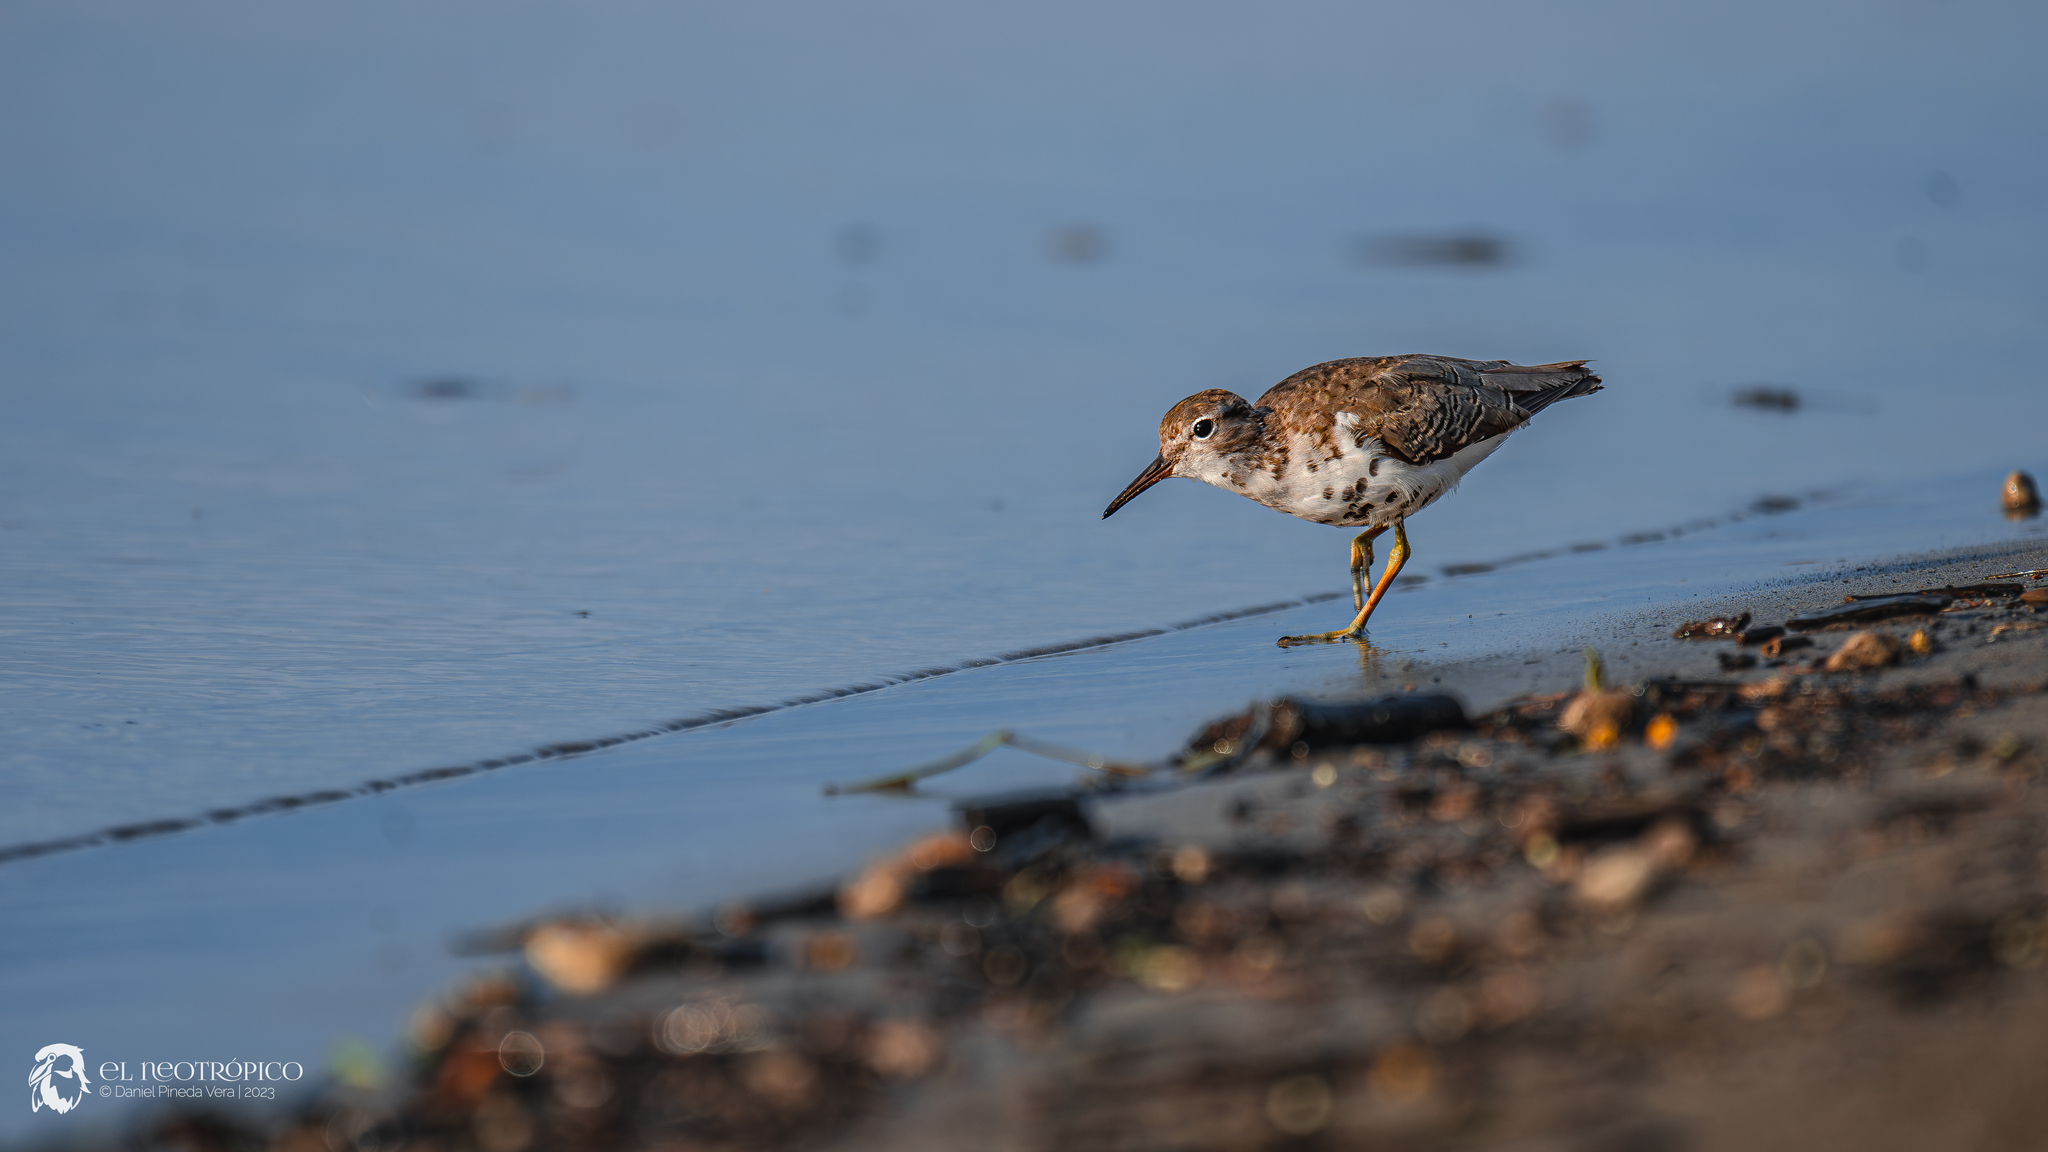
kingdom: Animalia
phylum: Chordata
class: Aves
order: Charadriiformes
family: Scolopacidae
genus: Actitis
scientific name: Actitis macularius
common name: Spotted sandpiper
